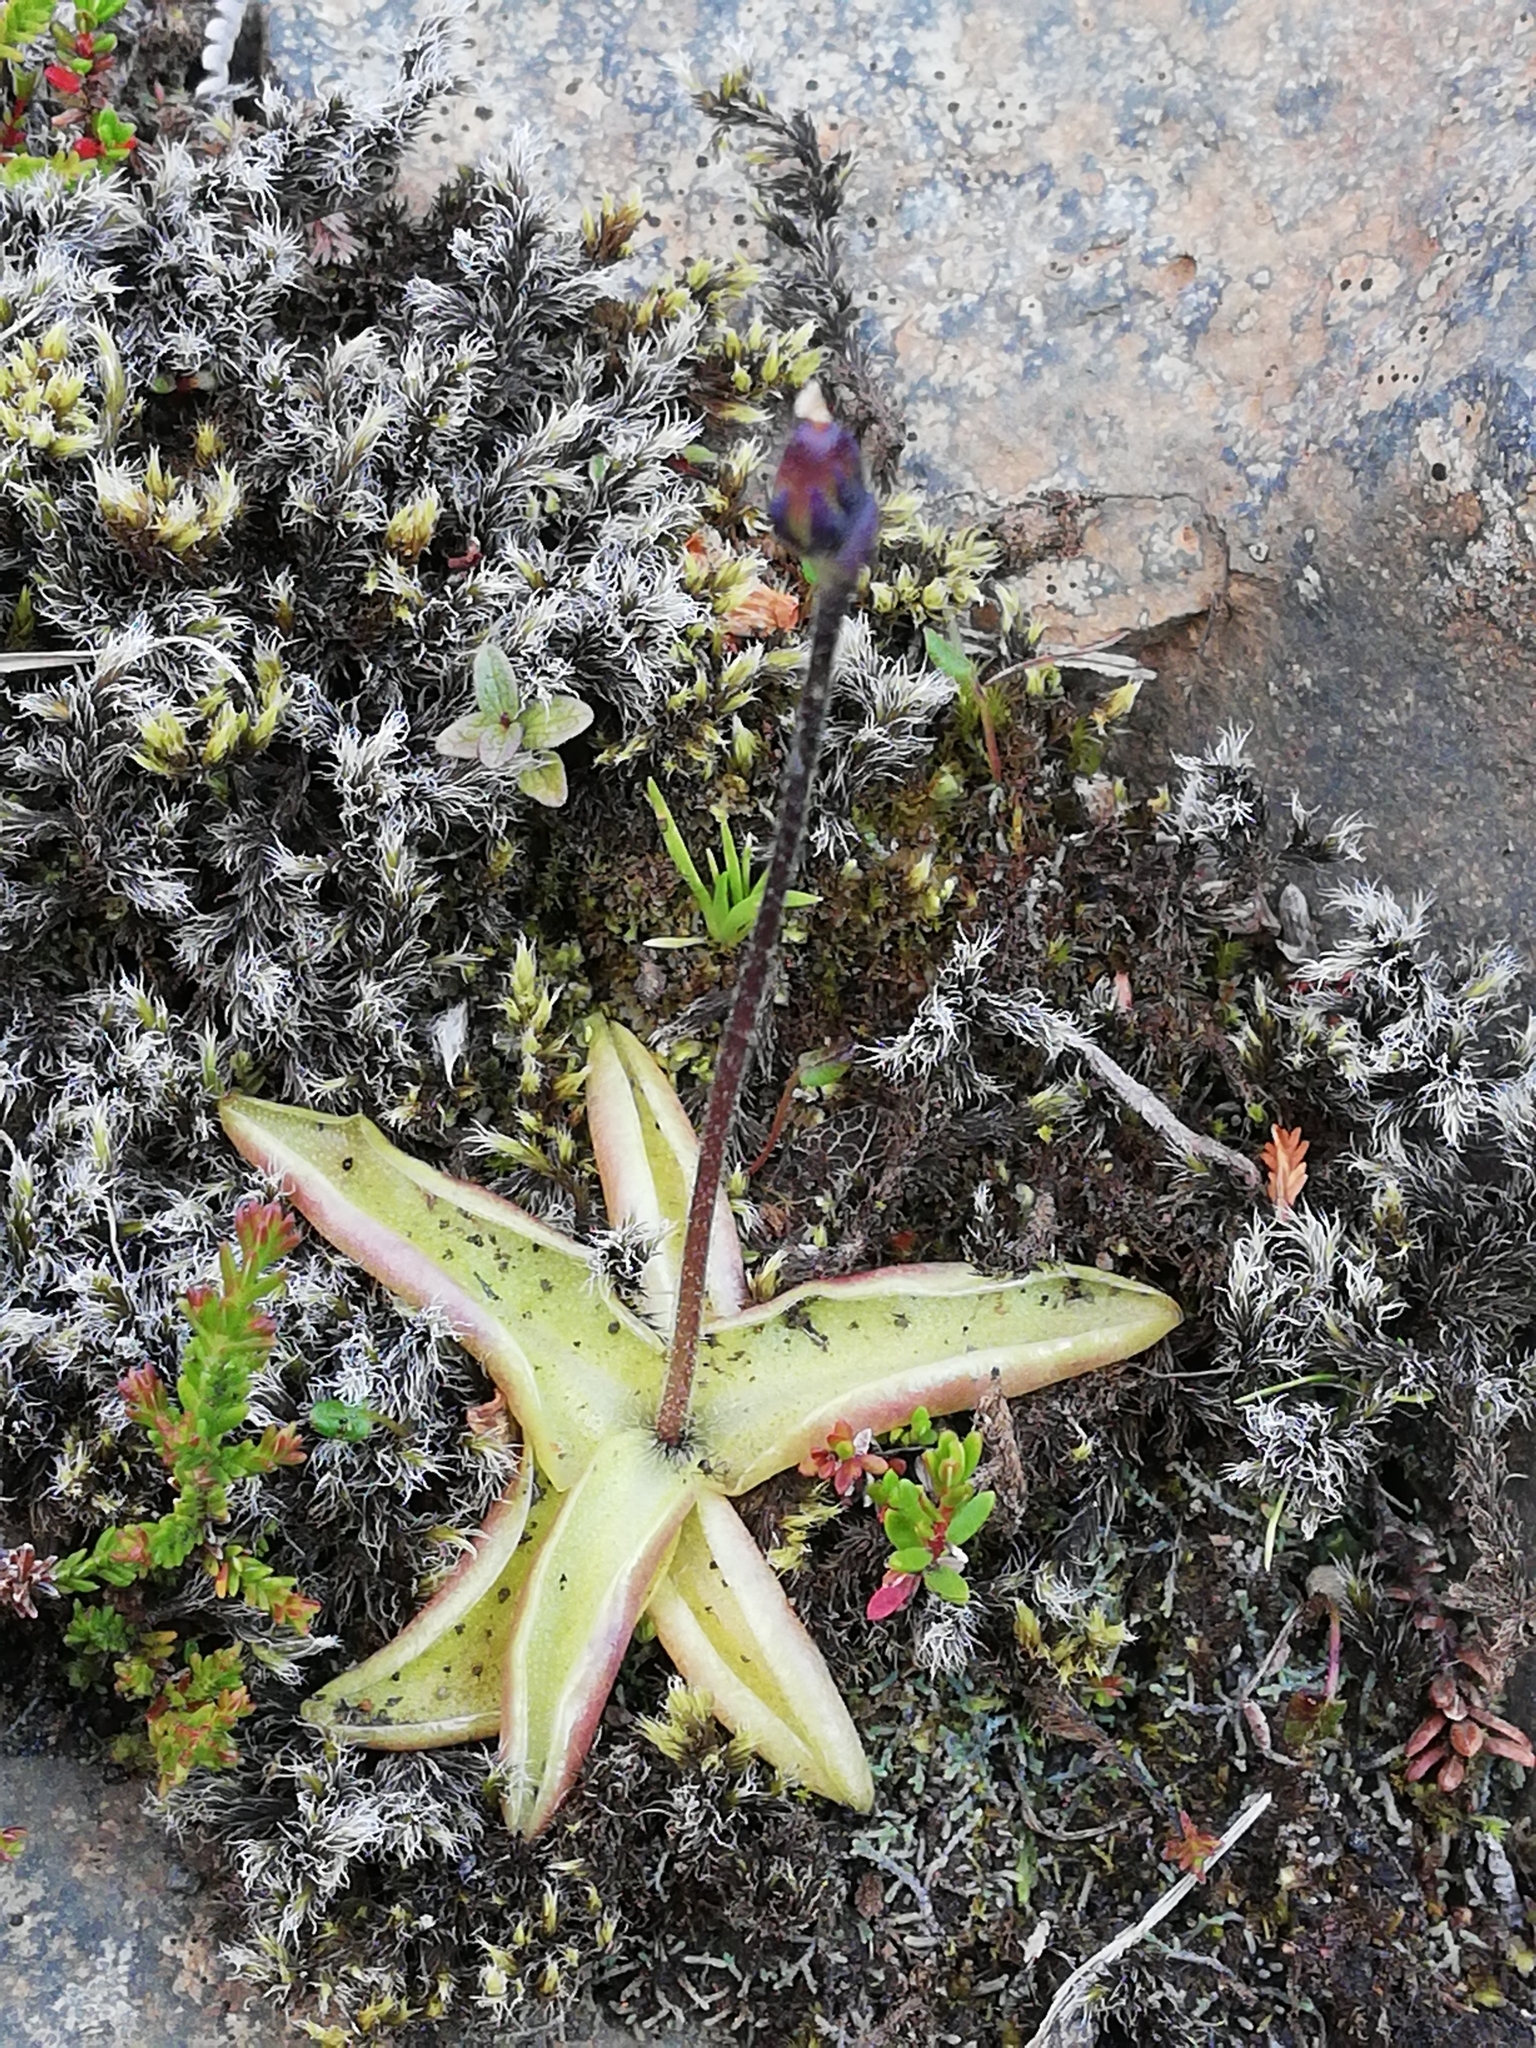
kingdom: Plantae
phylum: Tracheophyta
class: Magnoliopsida
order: Lamiales
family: Lentibulariaceae
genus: Pinguicula
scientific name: Pinguicula vulgaris
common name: Common butterwort
